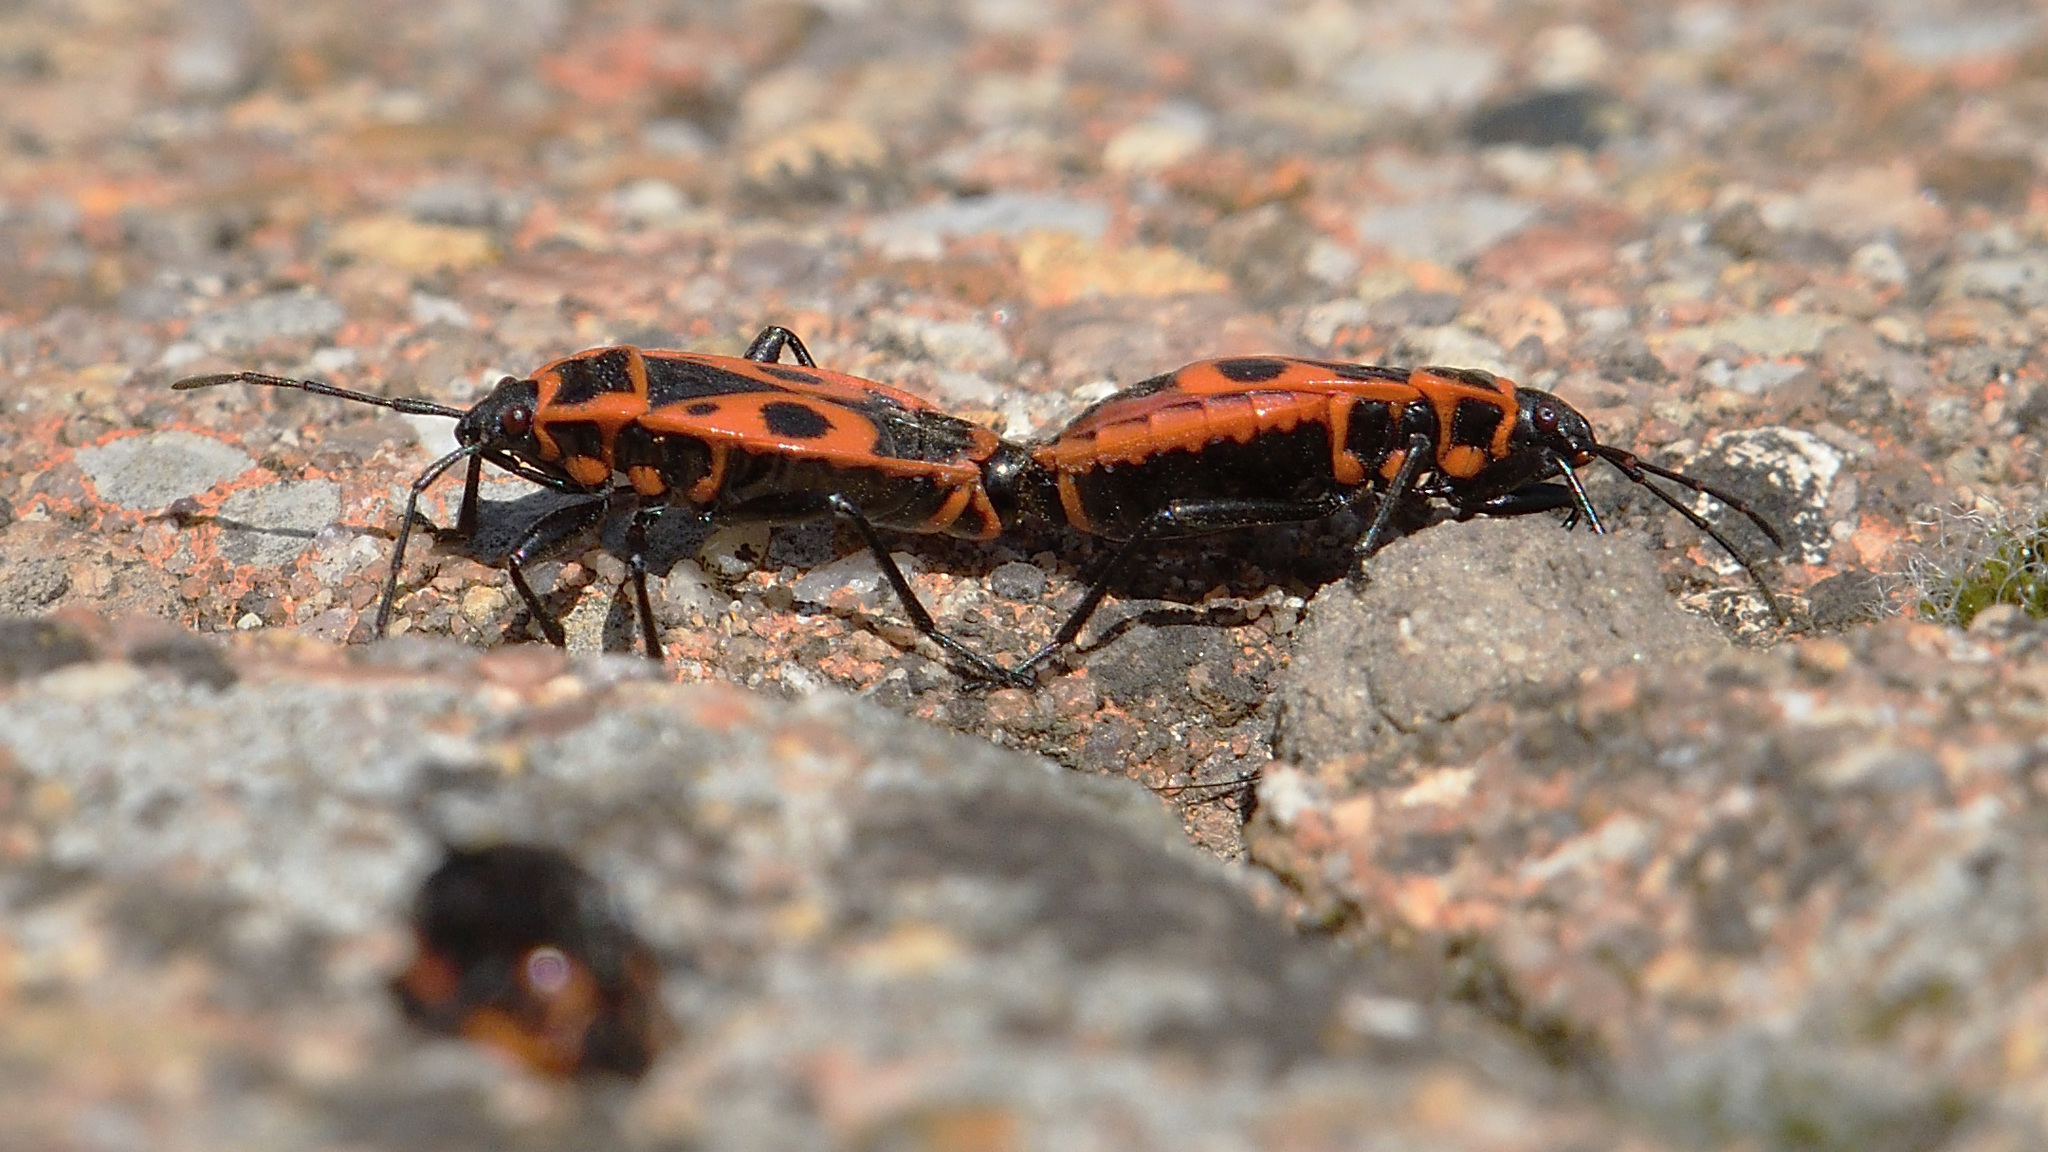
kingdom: Animalia
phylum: Arthropoda
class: Insecta
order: Hemiptera
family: Pyrrhocoridae
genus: Pyrrhocoris
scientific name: Pyrrhocoris apterus
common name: Firebug
